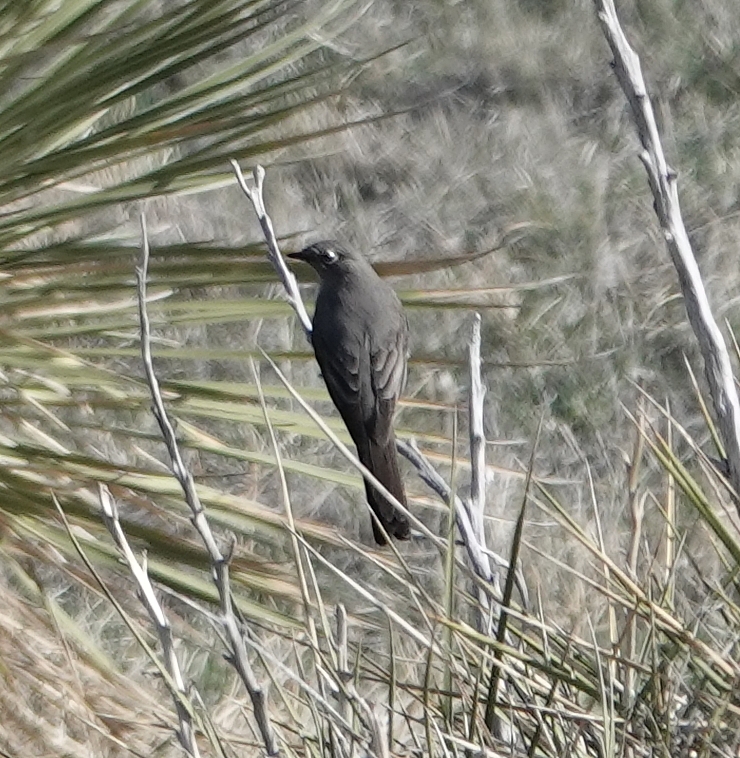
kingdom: Animalia
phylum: Chordata
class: Aves
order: Passeriformes
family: Turdidae
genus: Myadestes
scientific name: Myadestes townsendi
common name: Townsend's solitaire
